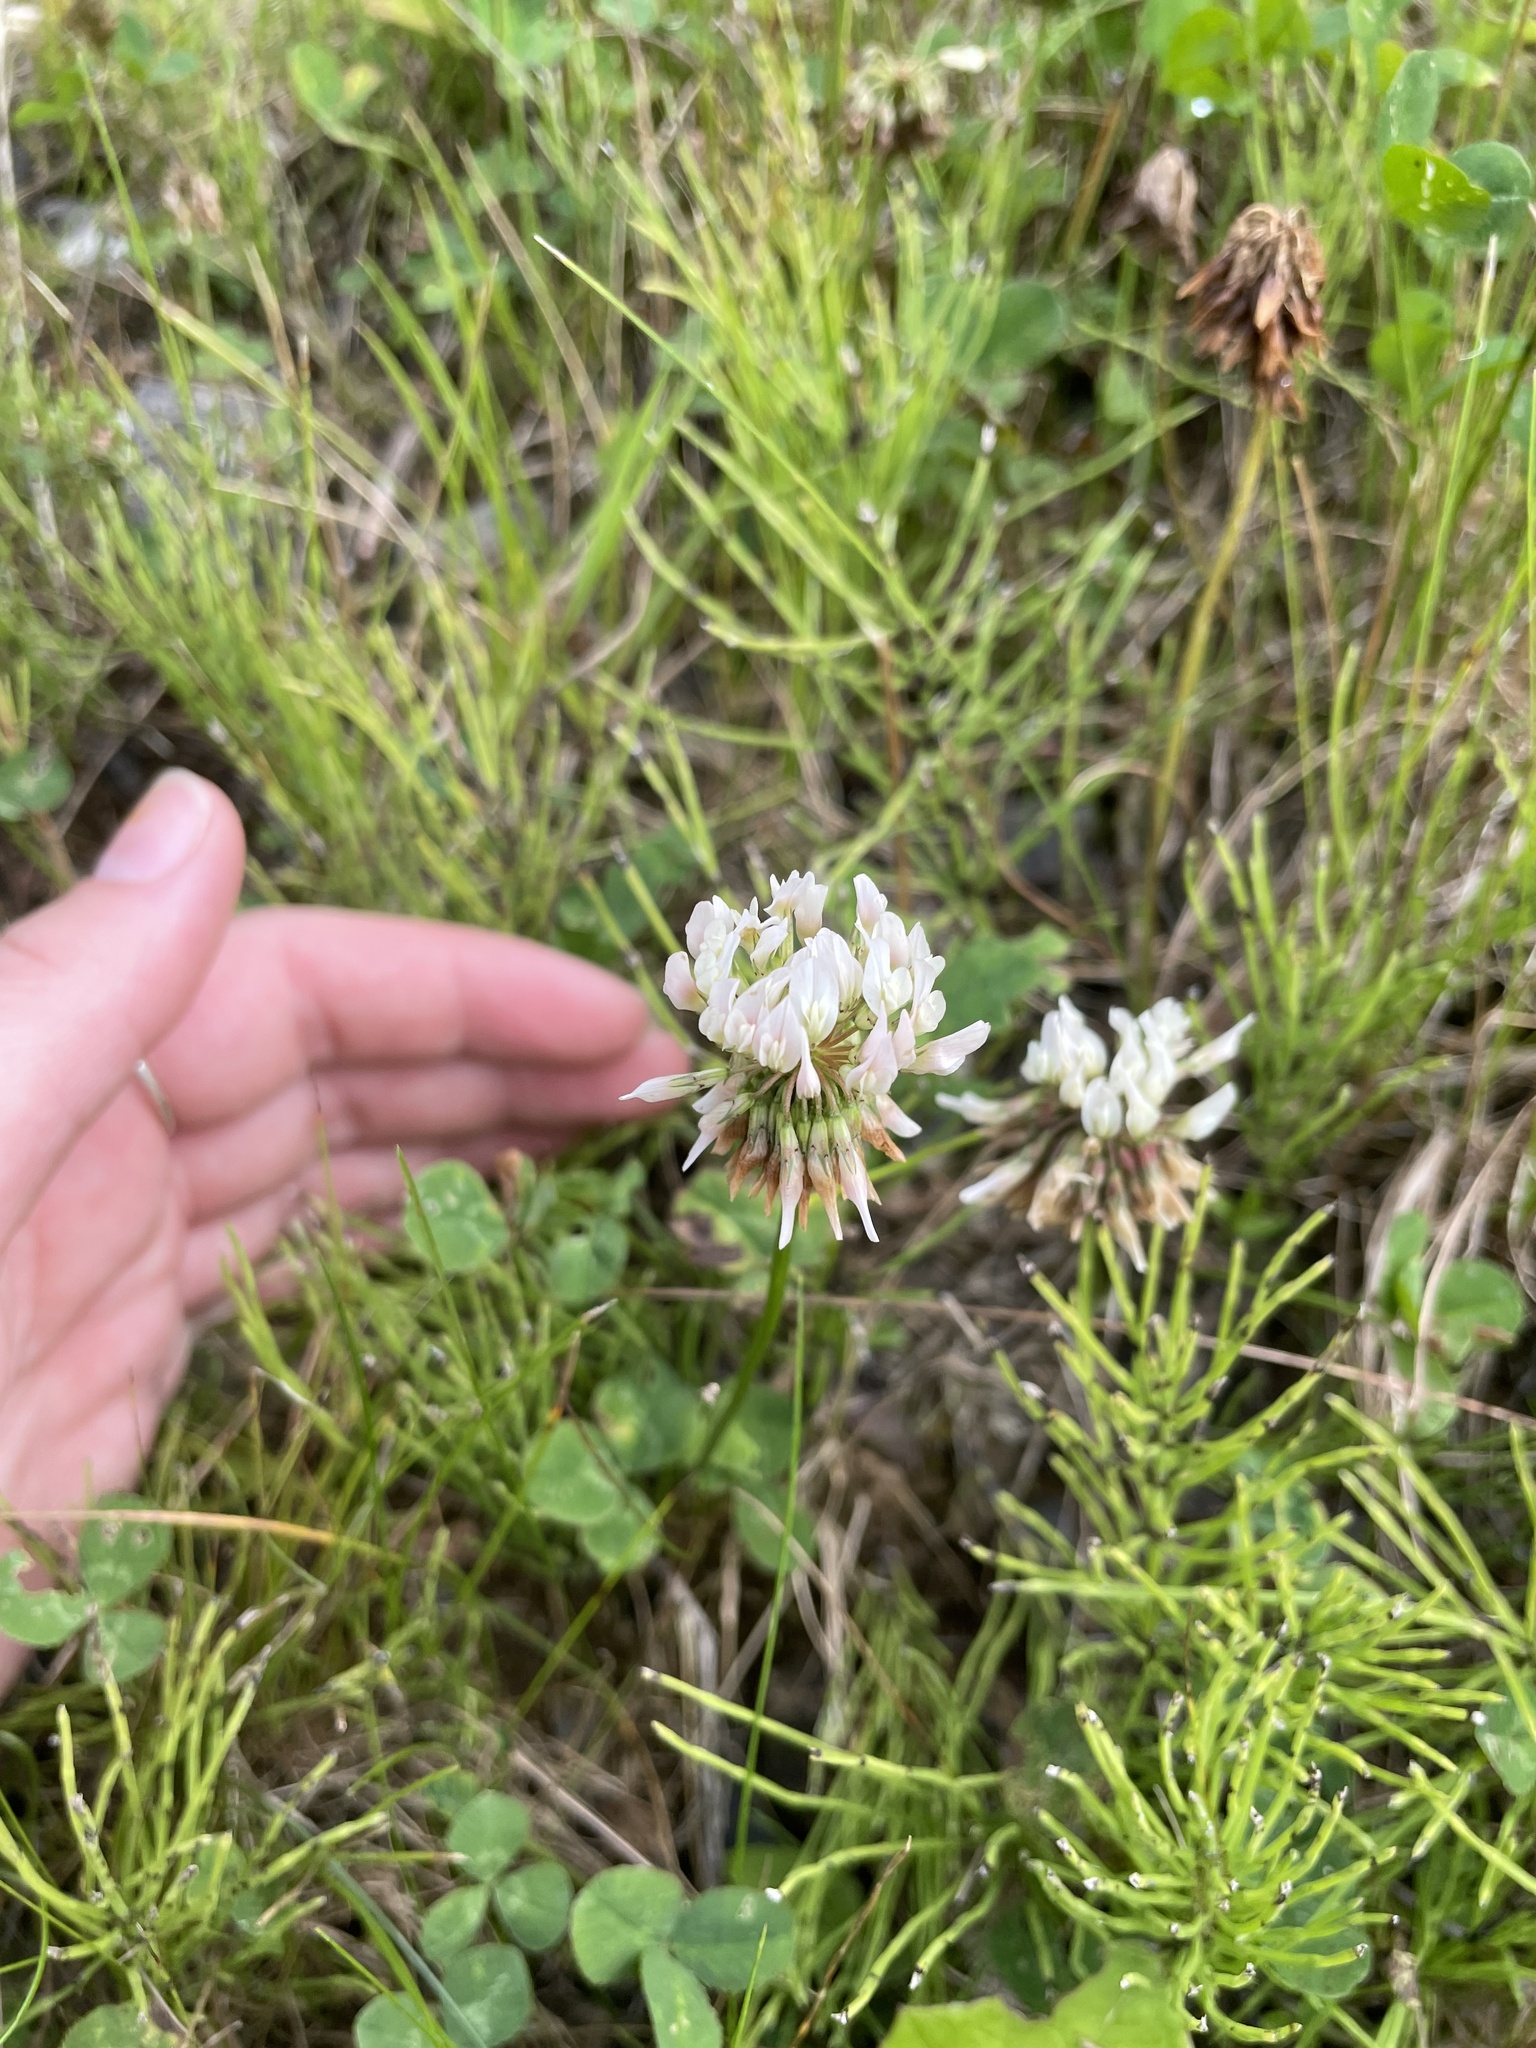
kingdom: Plantae
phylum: Tracheophyta
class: Magnoliopsida
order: Fabales
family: Fabaceae
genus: Trifolium
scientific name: Trifolium repens
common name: White clover
